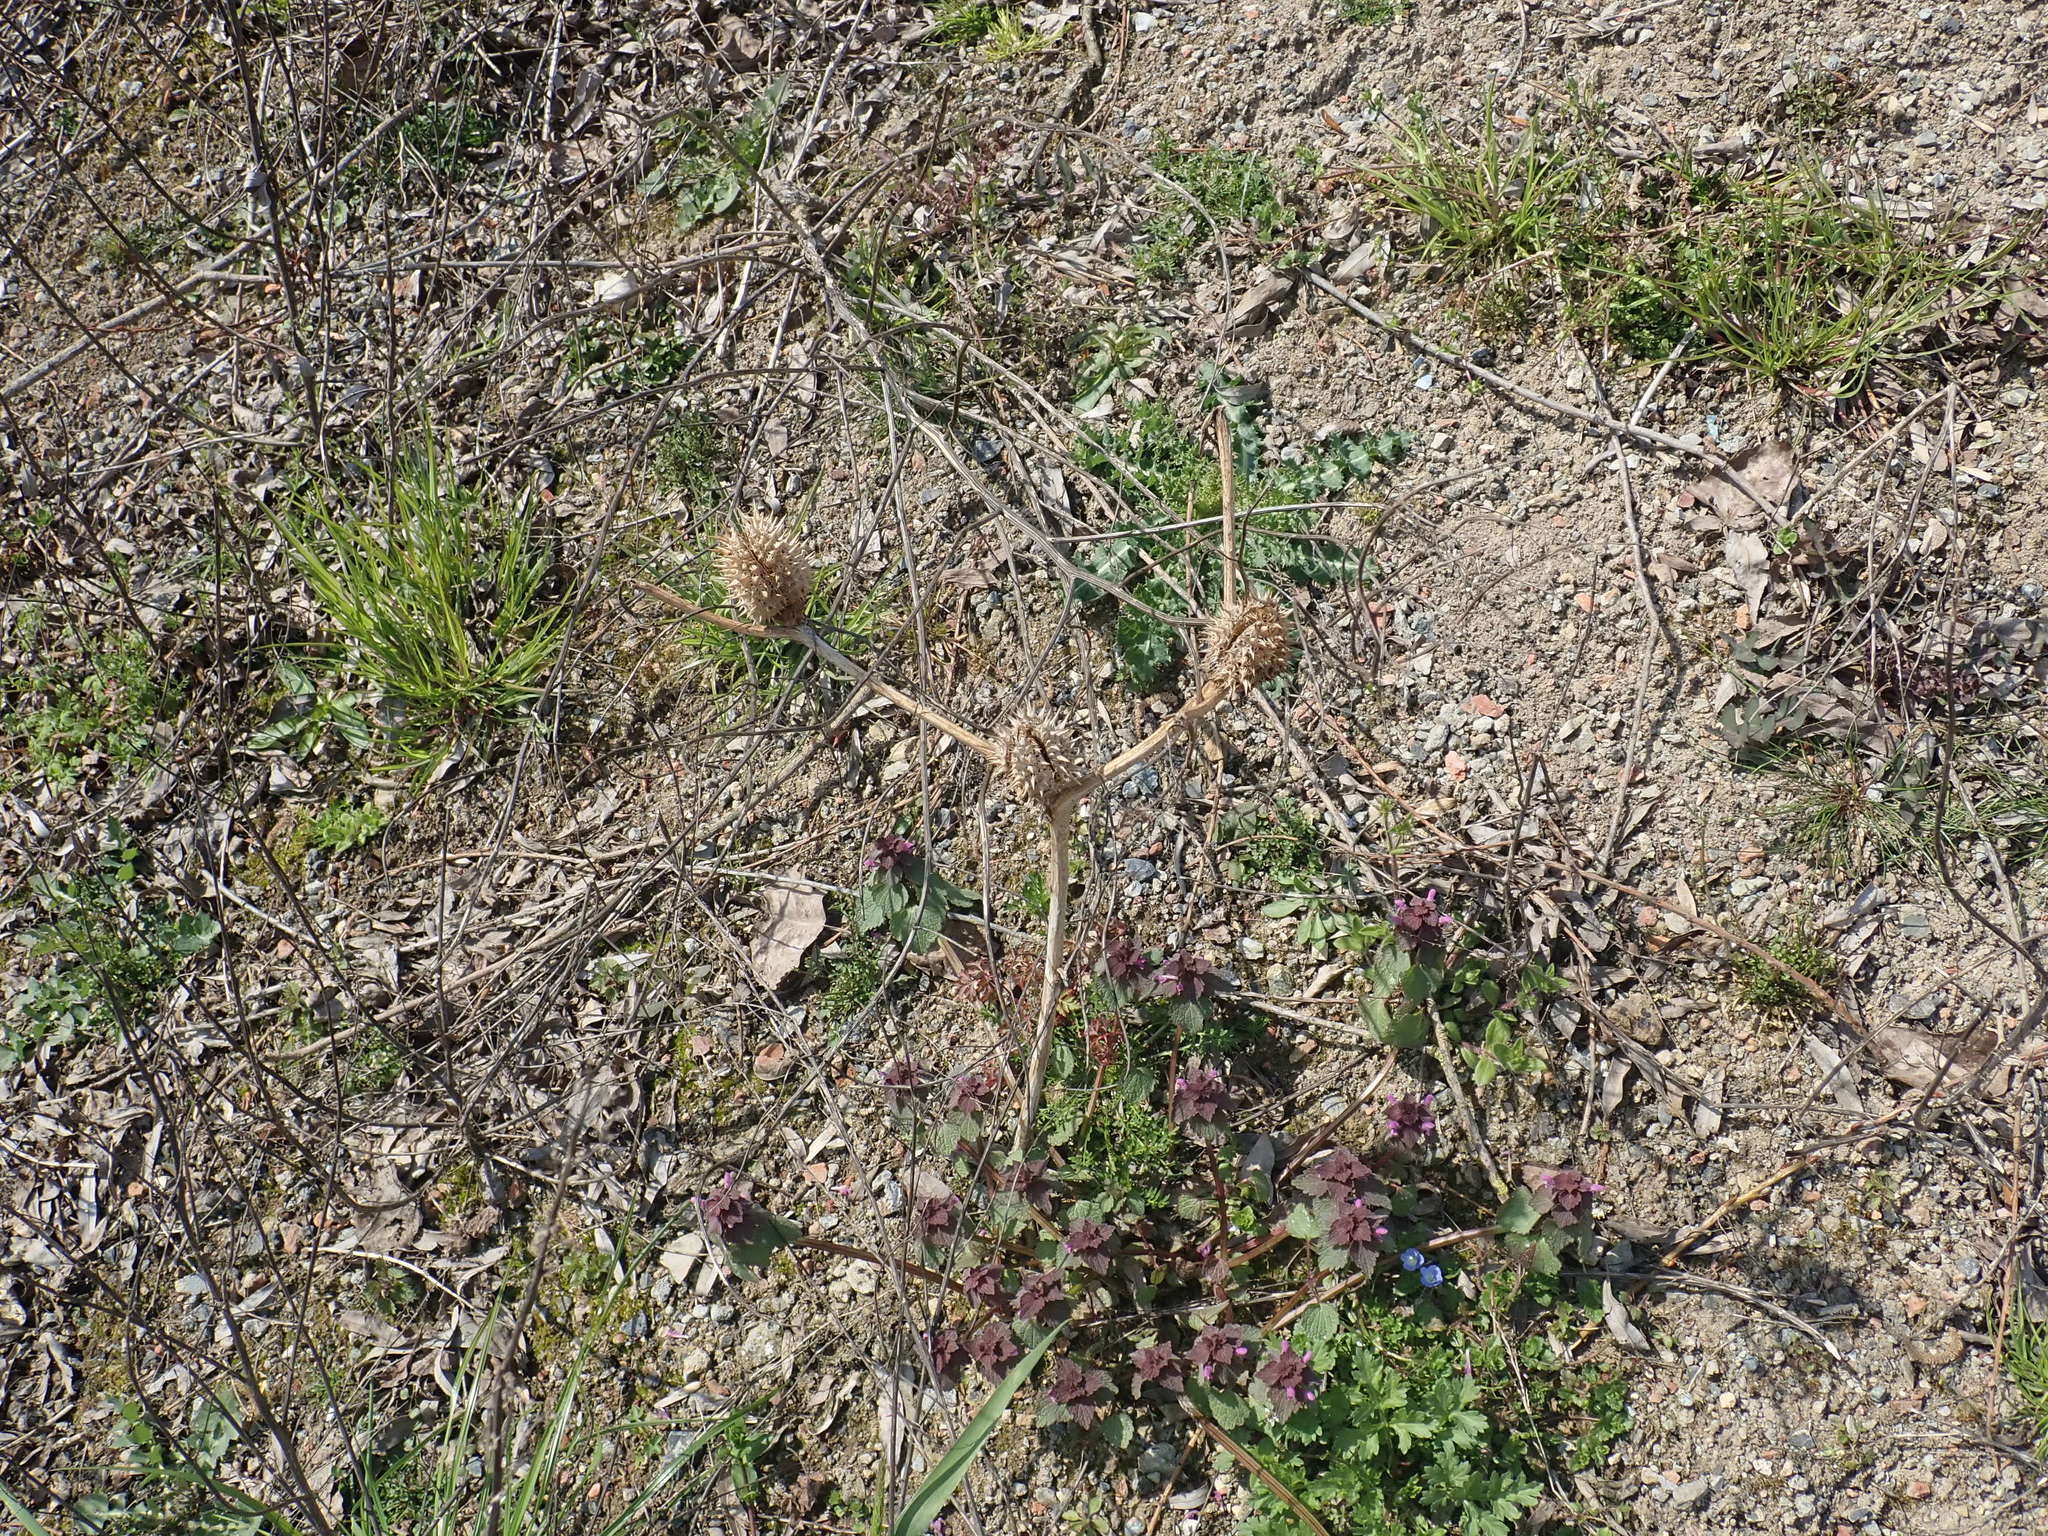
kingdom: Plantae
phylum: Tracheophyta
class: Magnoliopsida
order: Solanales
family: Solanaceae
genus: Datura
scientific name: Datura stramonium
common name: Thorn-apple
